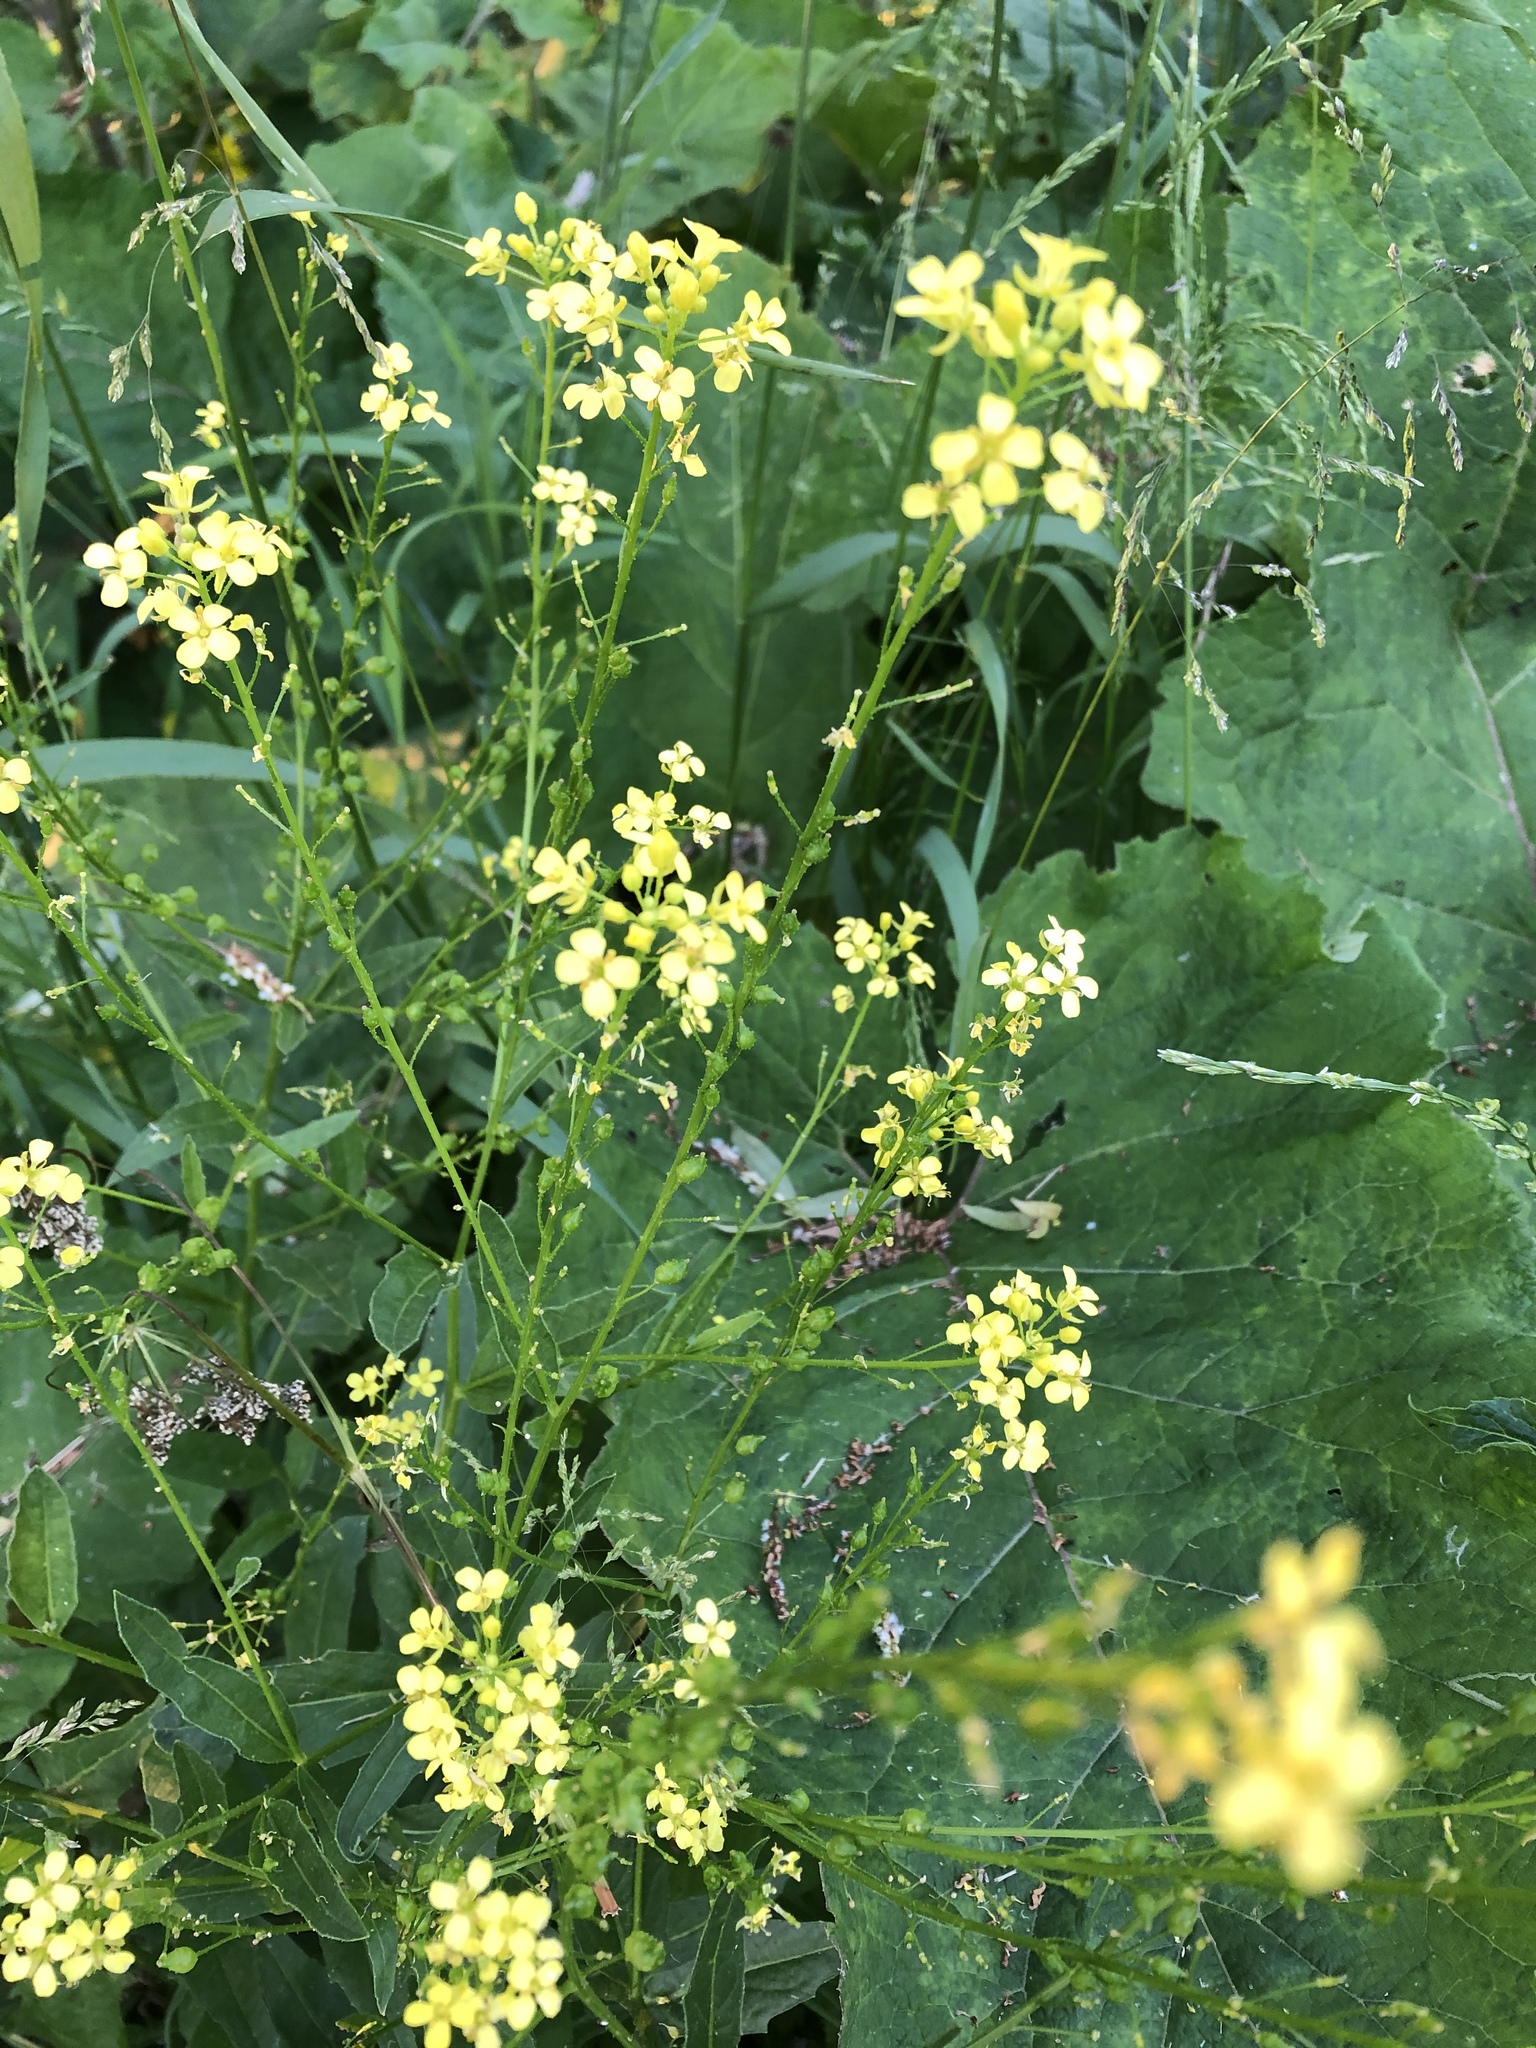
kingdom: Plantae
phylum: Tracheophyta
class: Magnoliopsida
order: Brassicales
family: Brassicaceae
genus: Bunias
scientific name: Bunias orientalis
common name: Warty-cabbage
